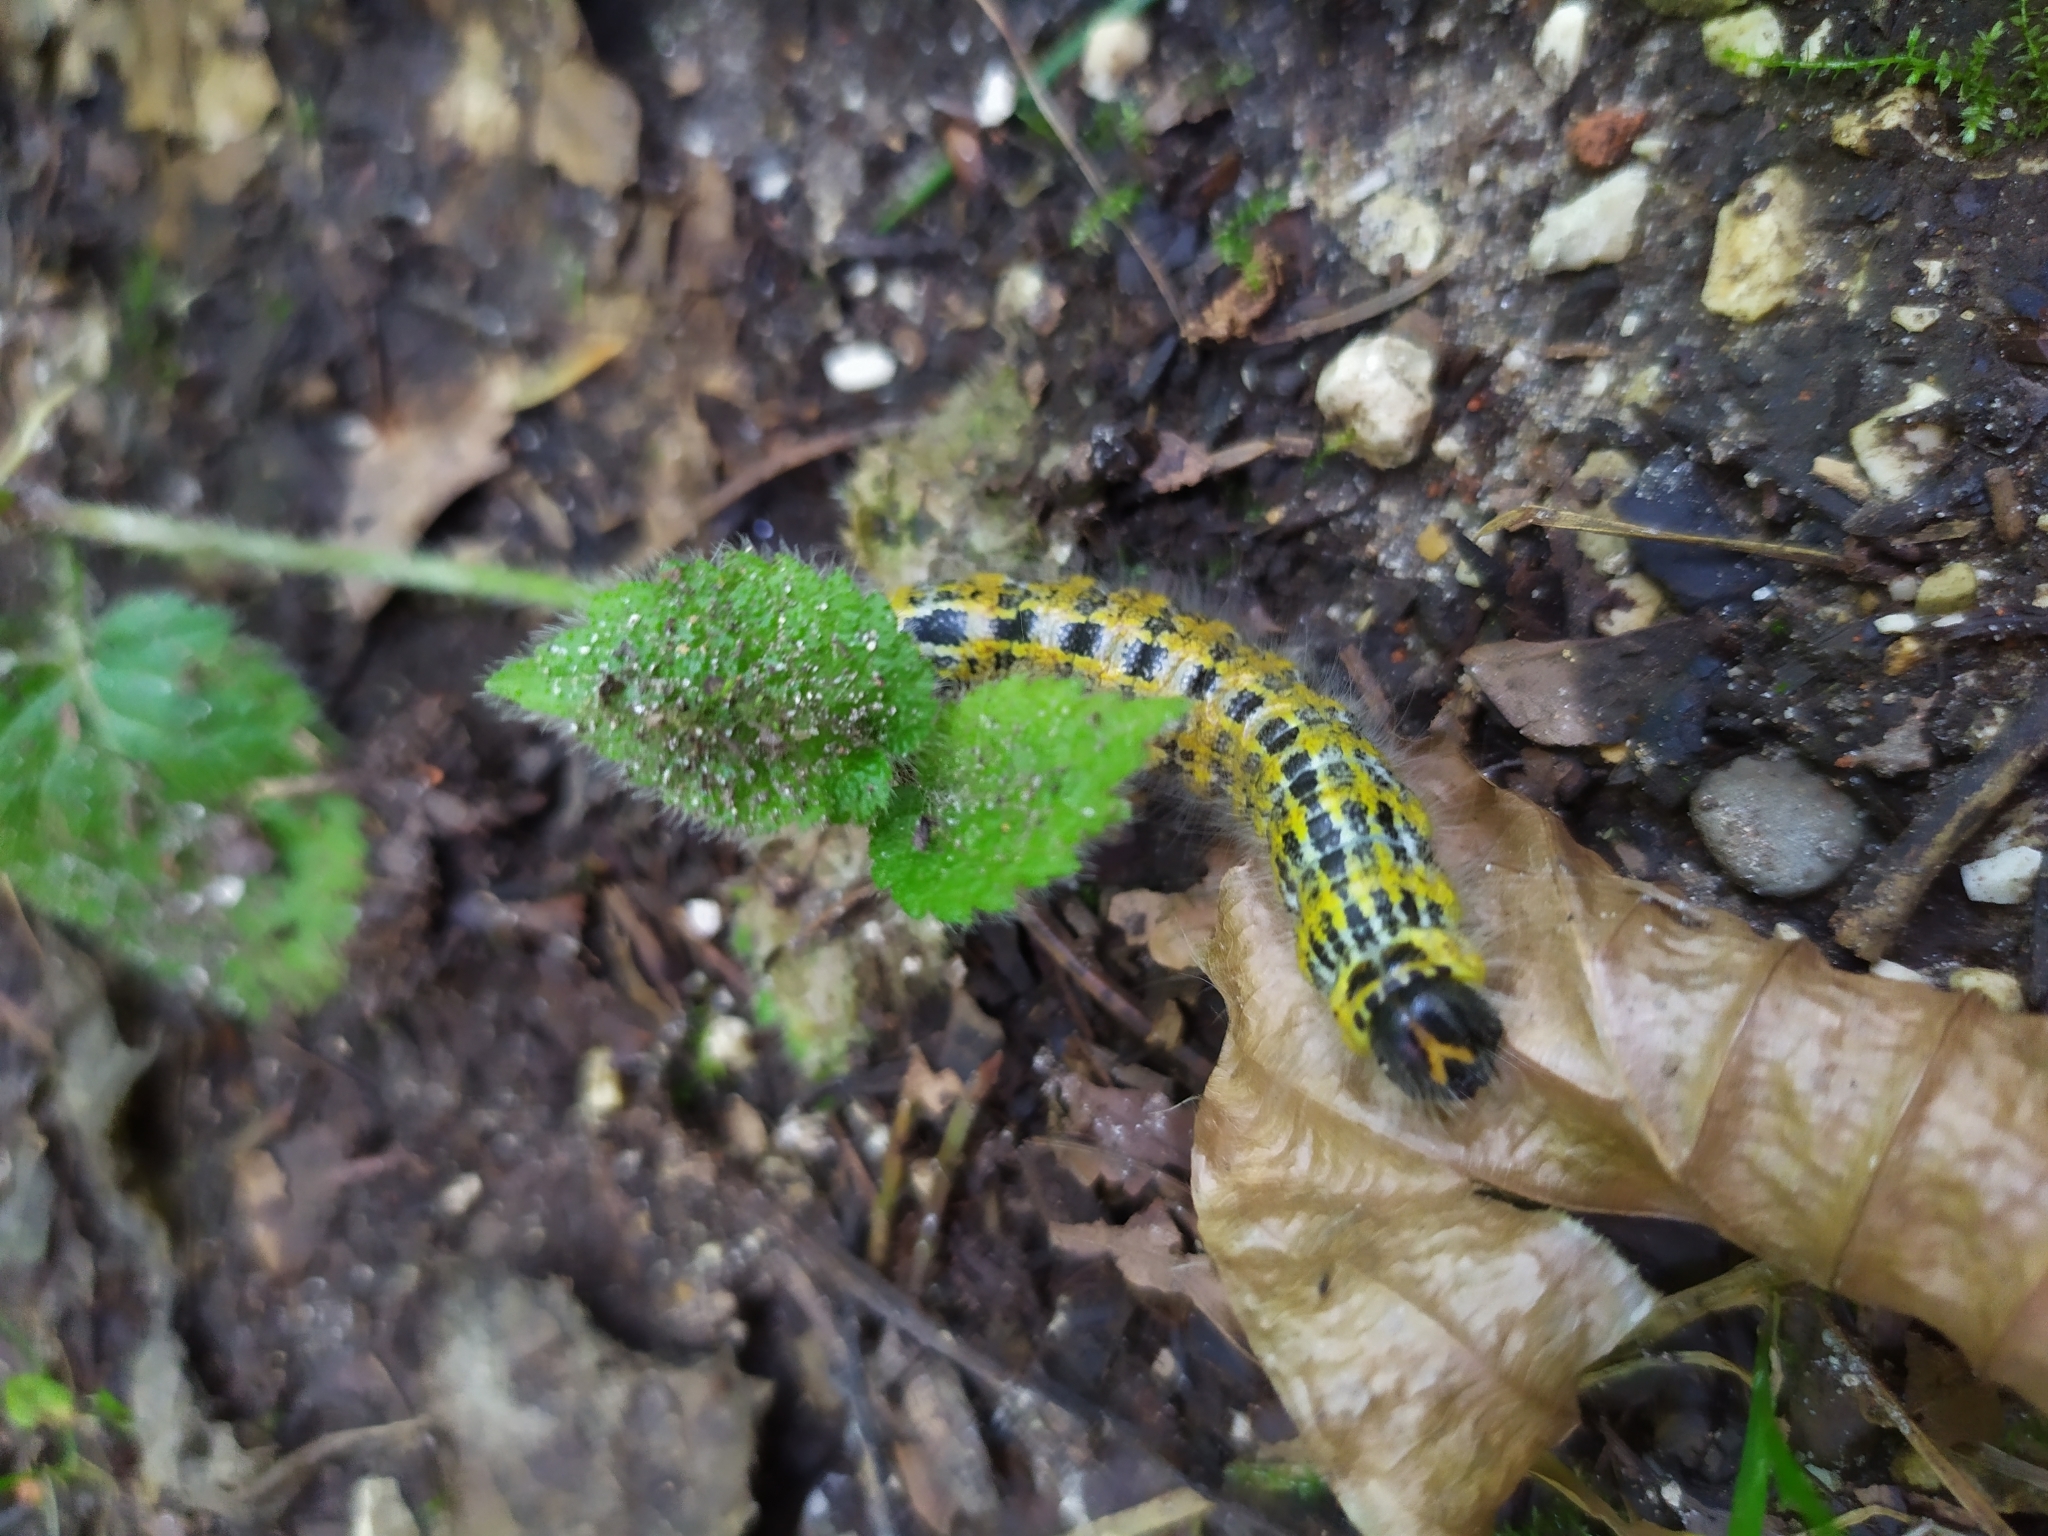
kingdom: Animalia
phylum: Arthropoda
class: Insecta
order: Lepidoptera
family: Notodontidae
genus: Phalera
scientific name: Phalera bucephala
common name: Buff-tip
